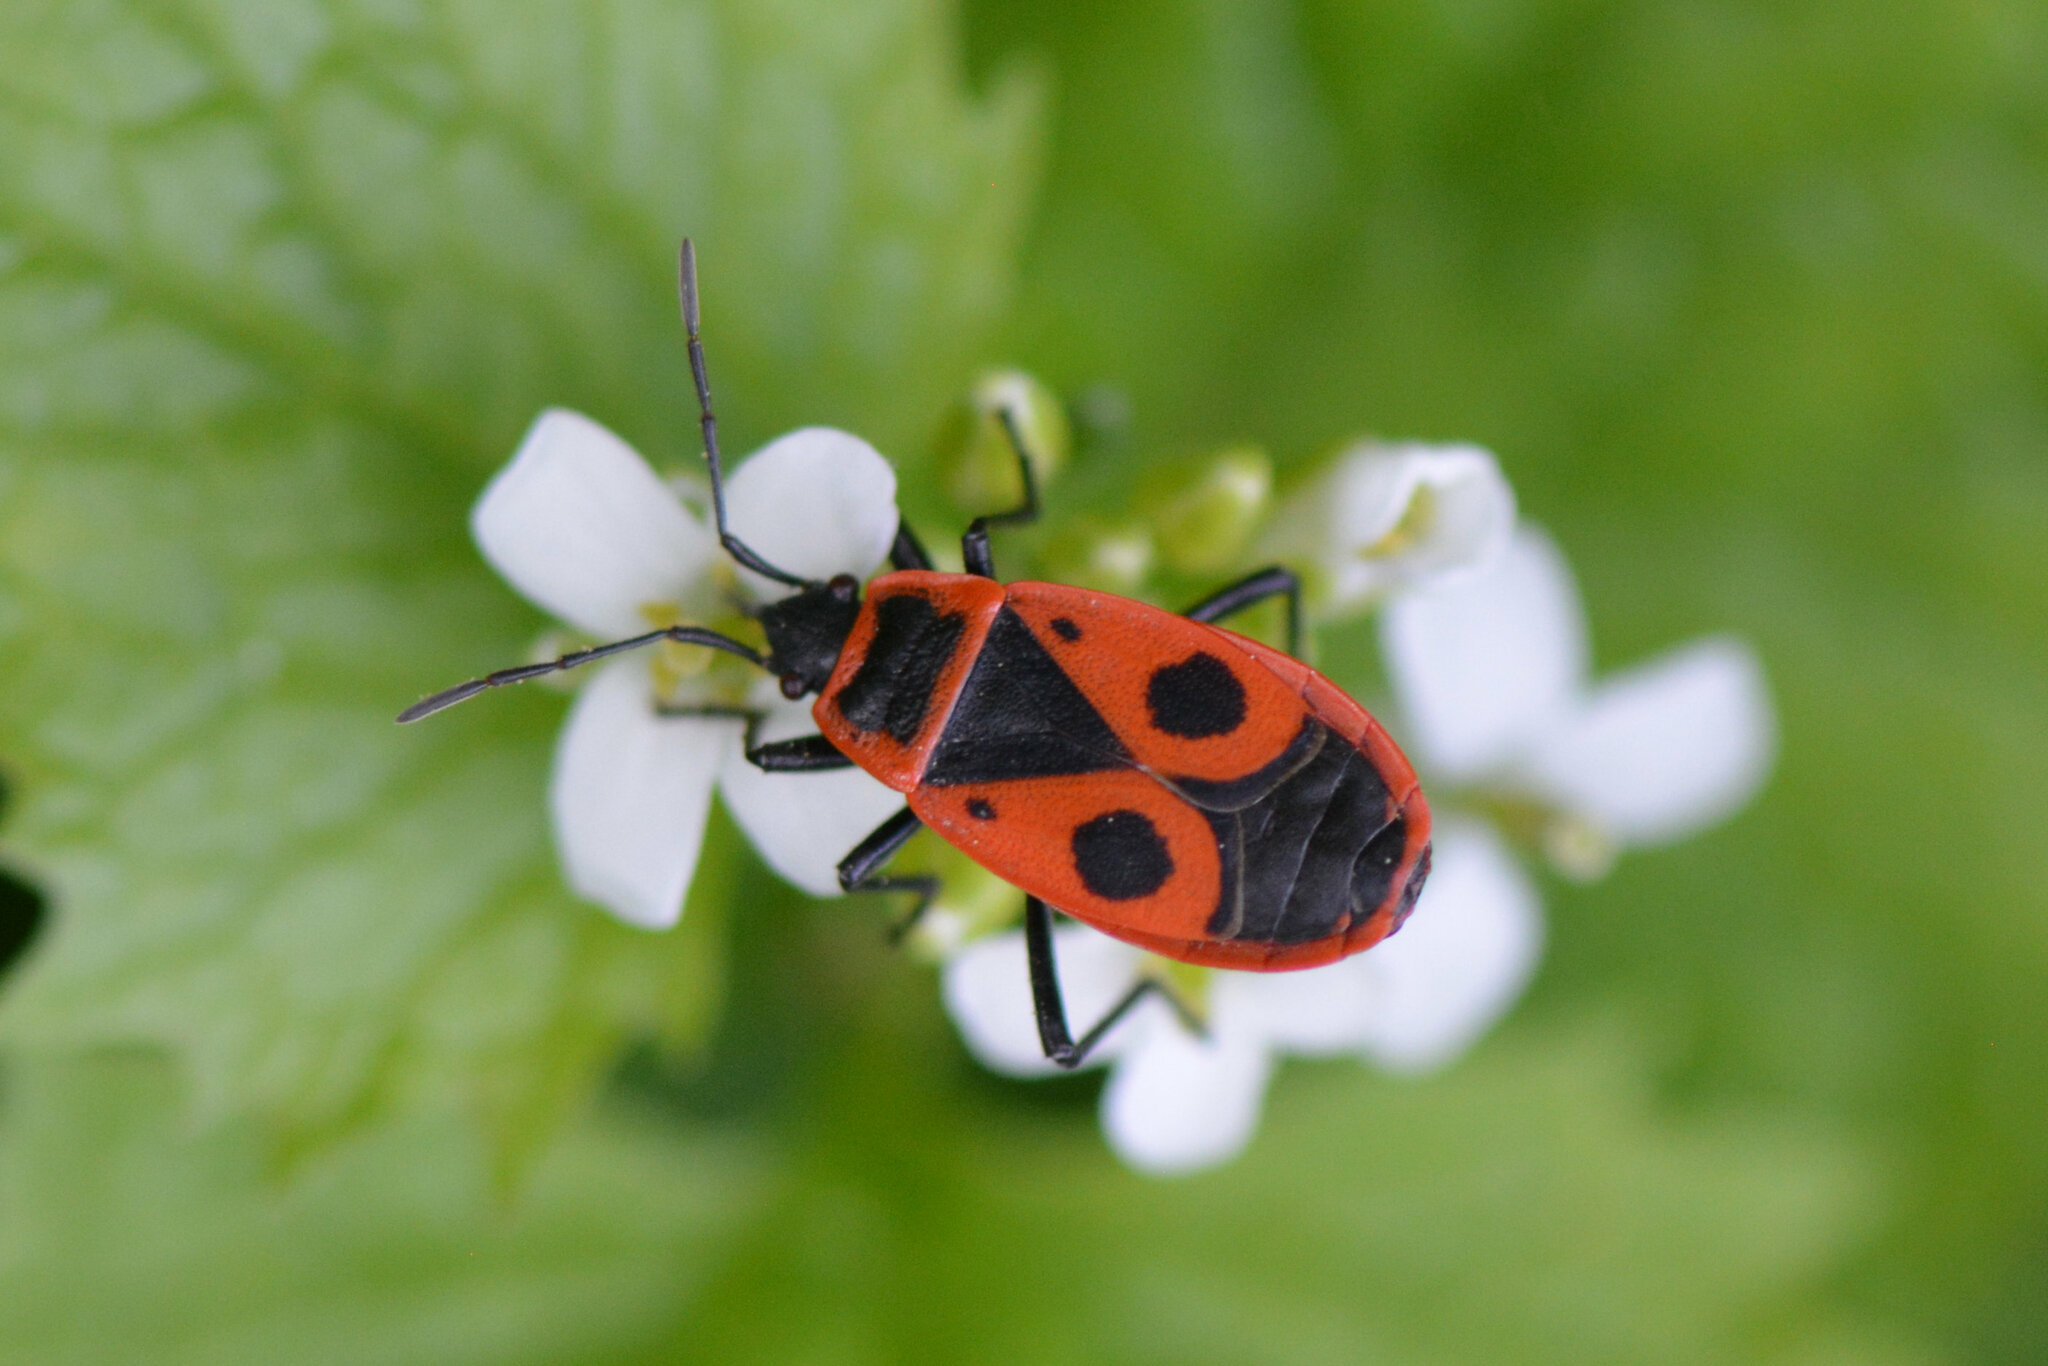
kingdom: Animalia
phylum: Arthropoda
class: Insecta
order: Hemiptera
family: Pyrrhocoridae
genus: Pyrrhocoris
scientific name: Pyrrhocoris apterus
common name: Firebug
